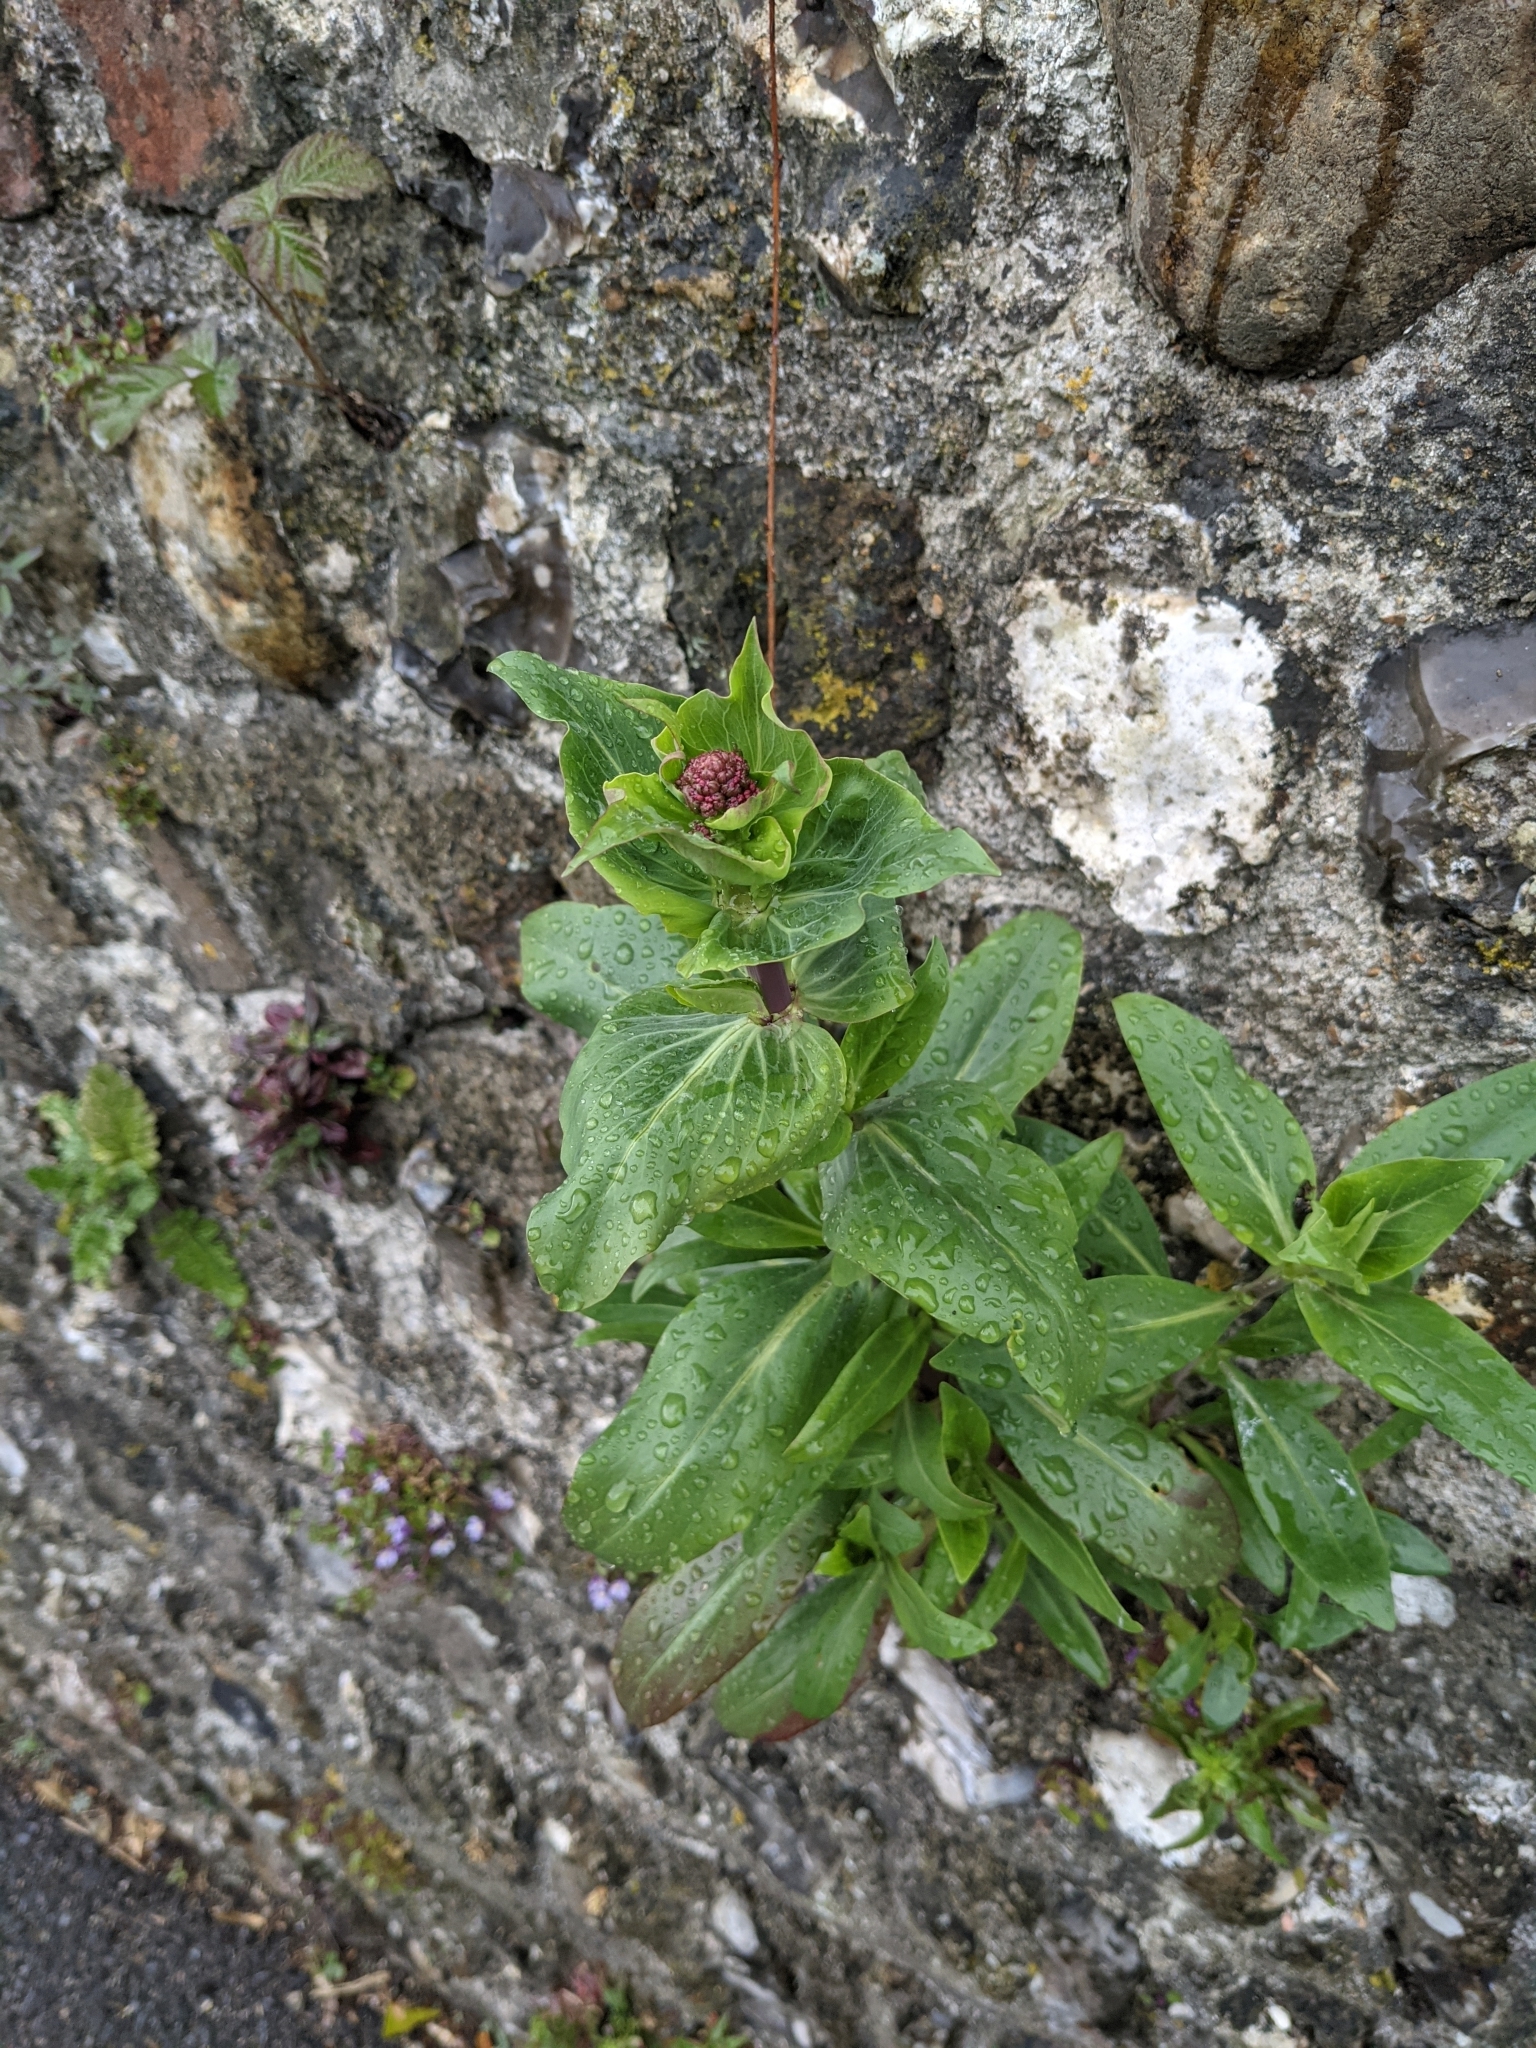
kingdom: Plantae
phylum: Tracheophyta
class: Magnoliopsida
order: Dipsacales
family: Caprifoliaceae
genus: Centranthus
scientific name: Centranthus ruber
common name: Red valerian
